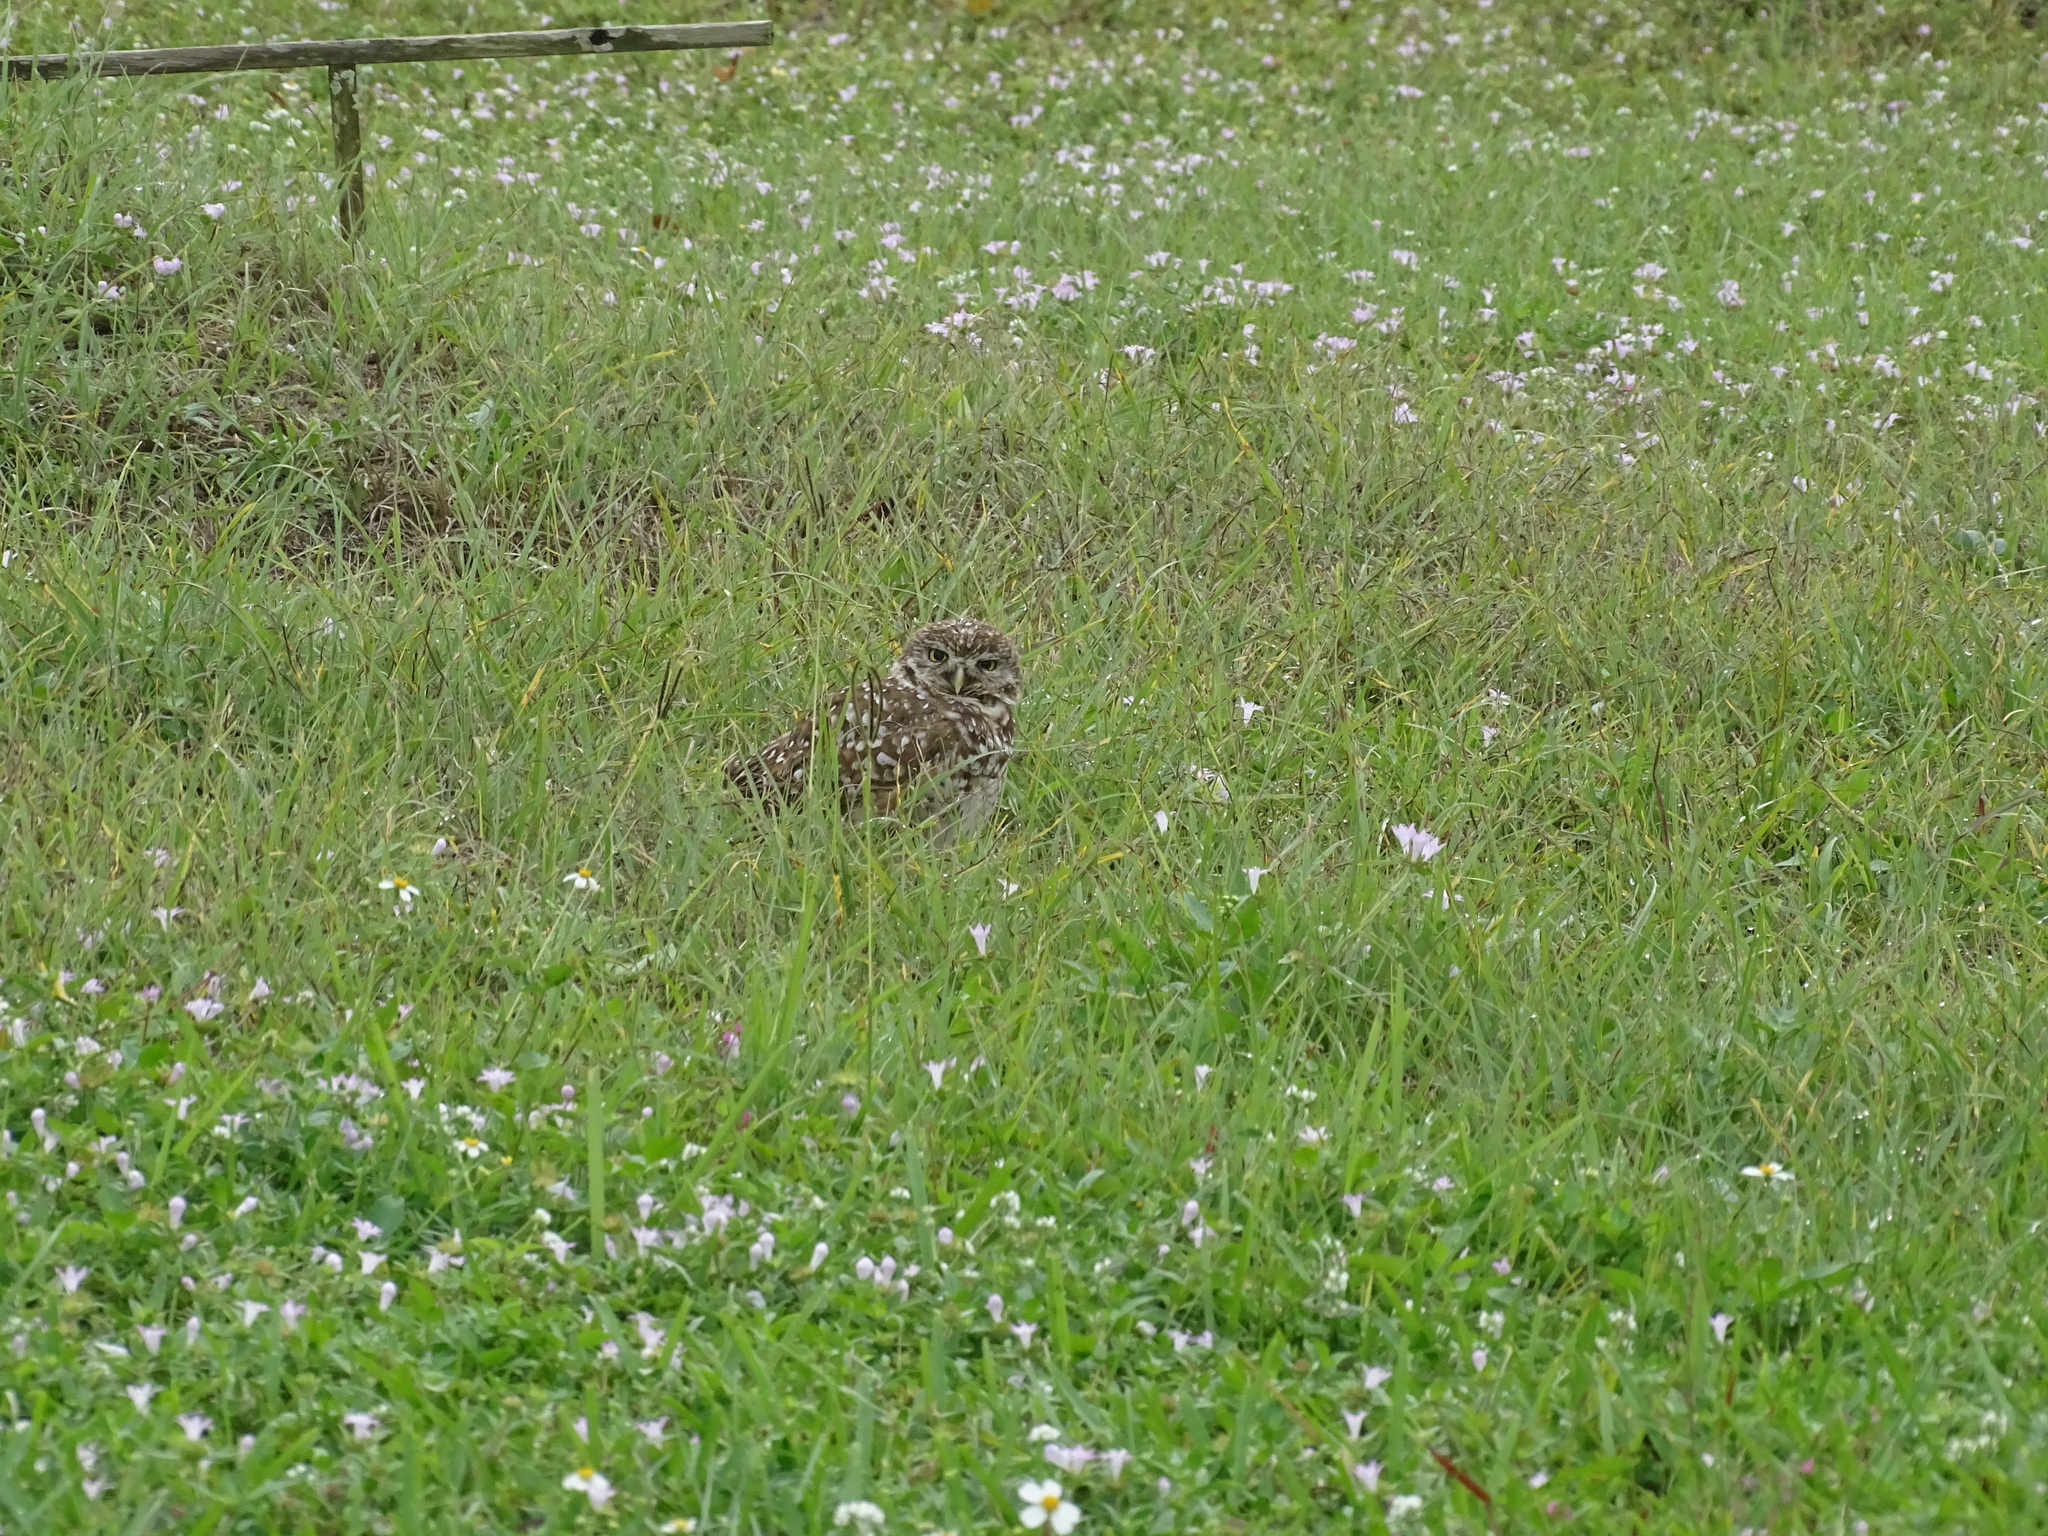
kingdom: Animalia
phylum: Chordata
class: Aves
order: Strigiformes
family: Strigidae
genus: Athene
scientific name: Athene cunicularia
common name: Burrowing owl
